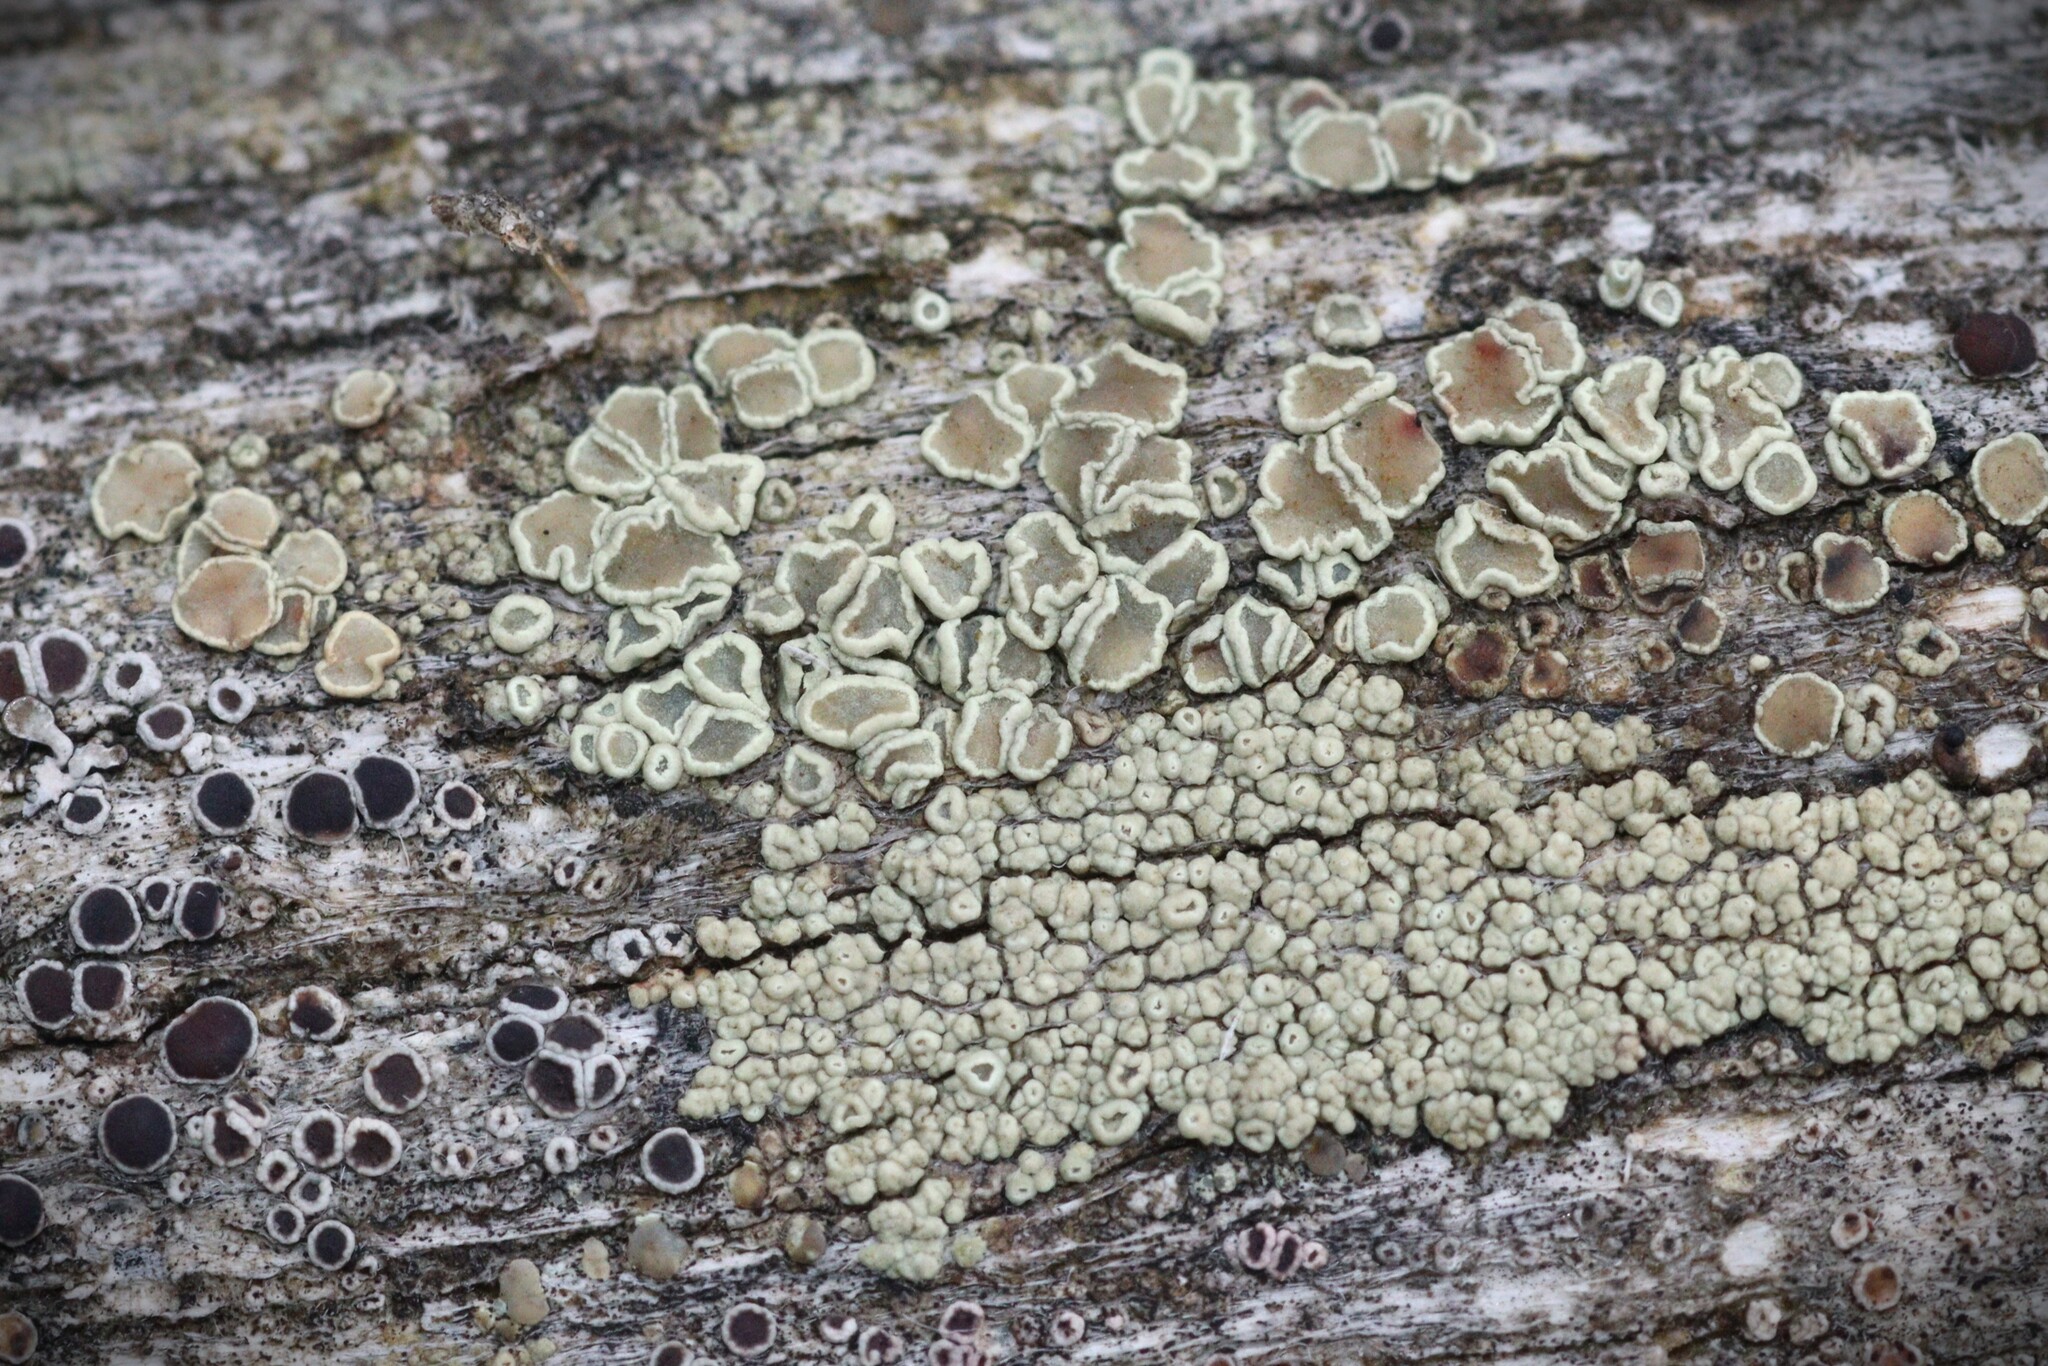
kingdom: Fungi
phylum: Ascomycota
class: Lecanoromycetes
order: Lecanorales
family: Lecanoraceae
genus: Straminella
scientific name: Straminella varia
